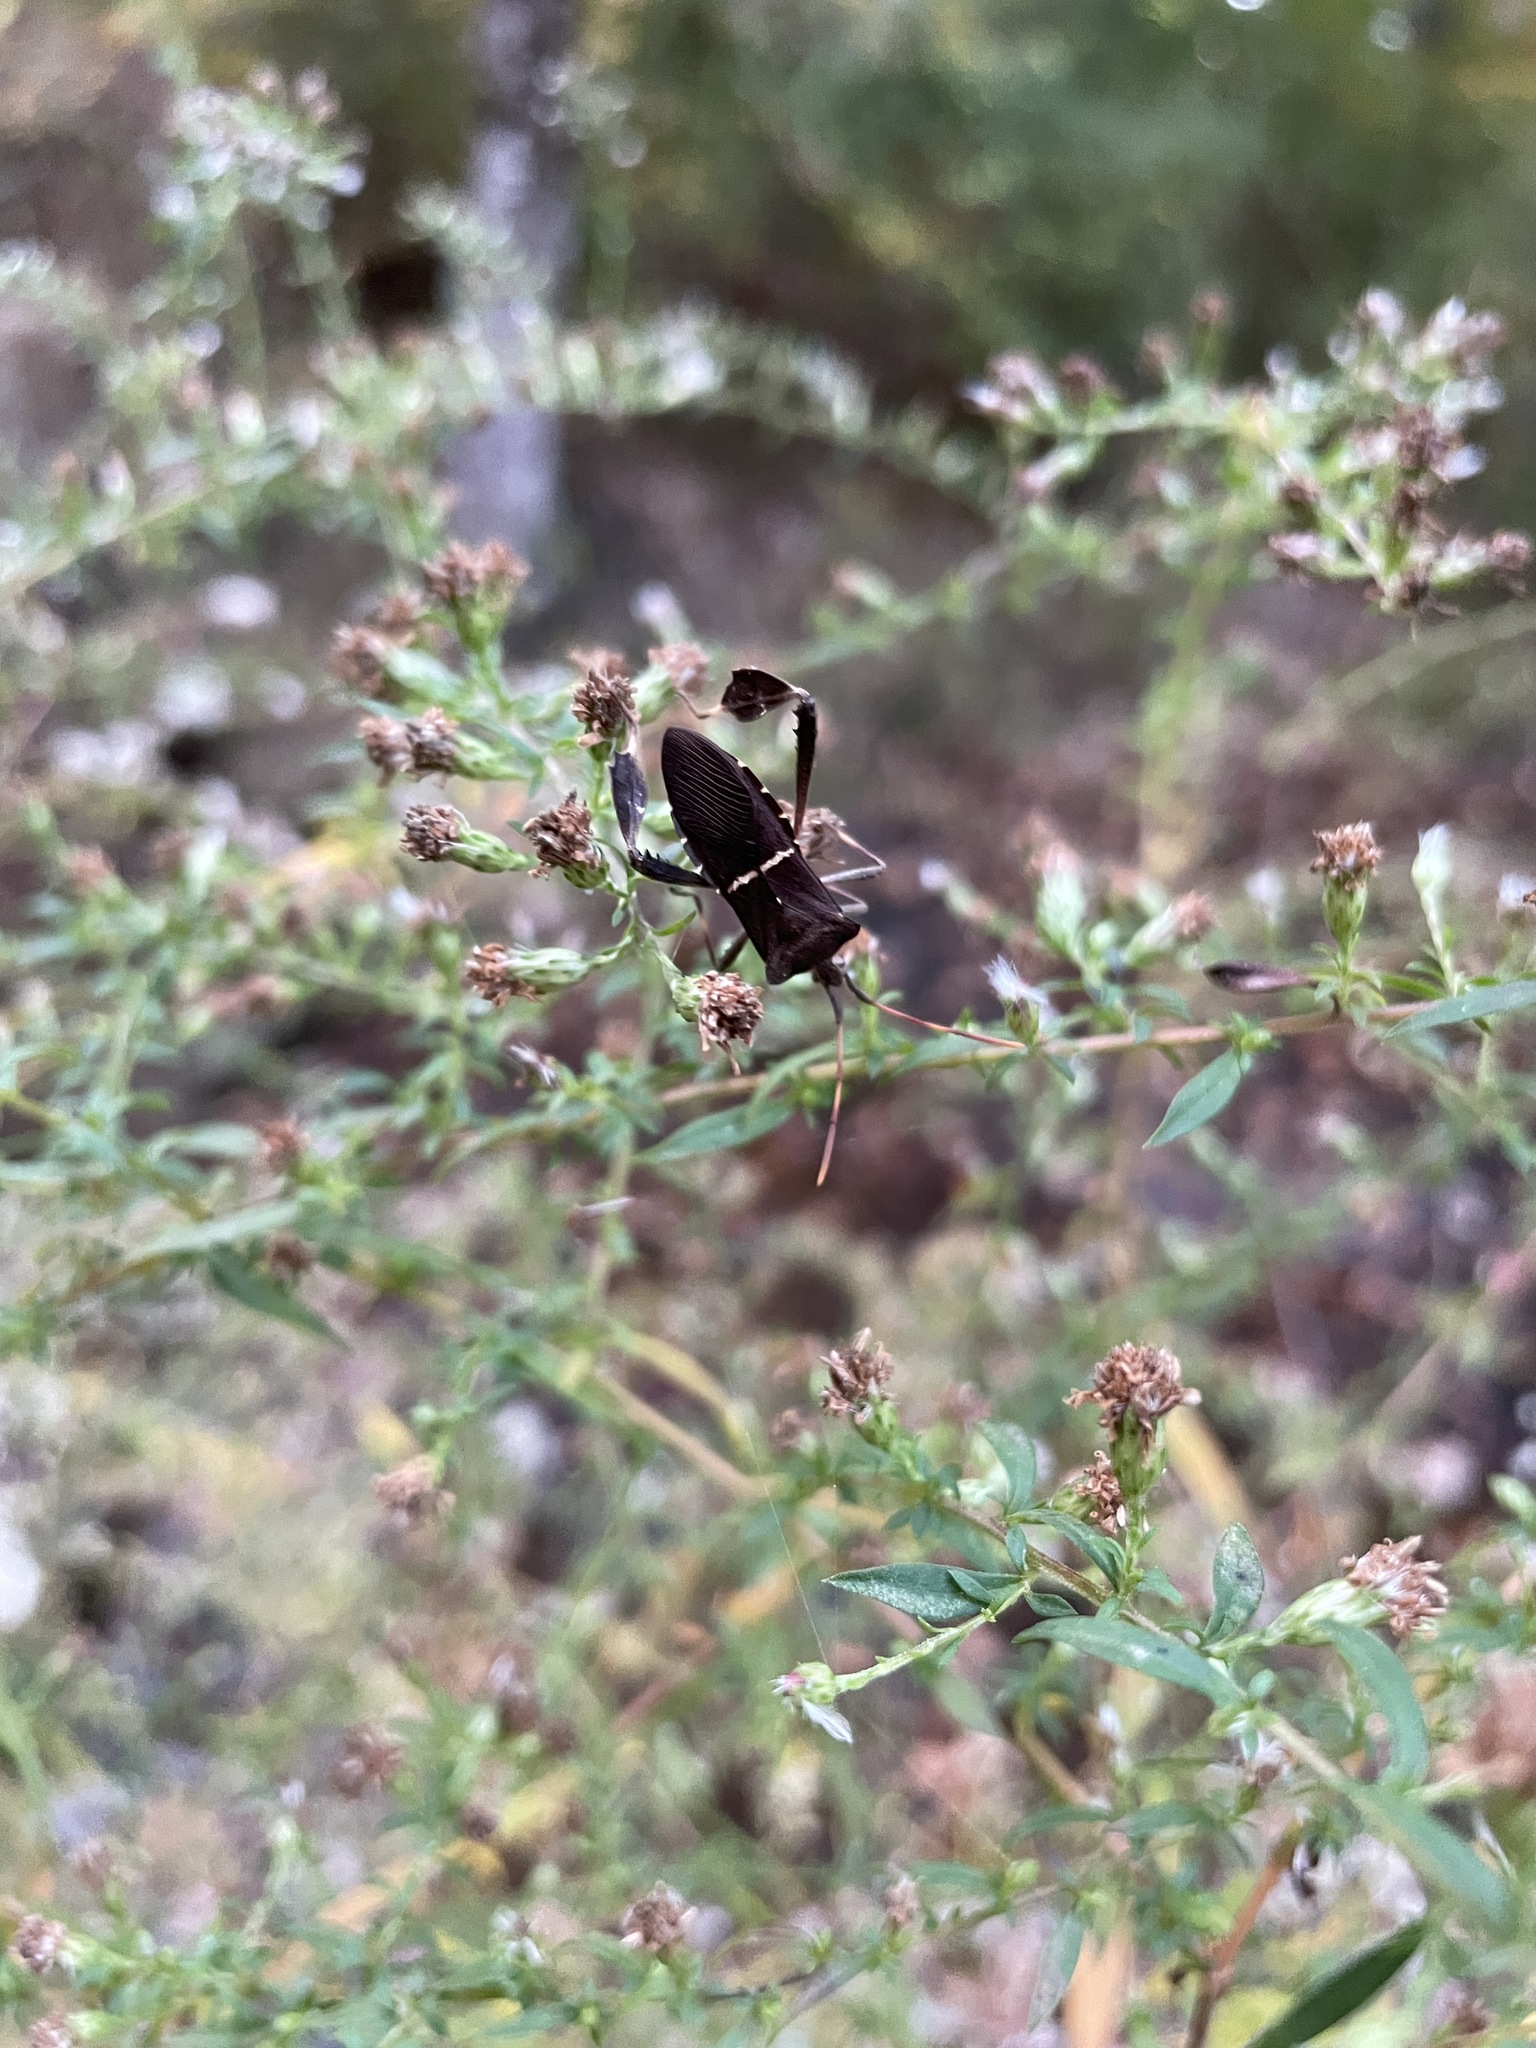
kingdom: Animalia
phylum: Arthropoda
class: Insecta
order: Hemiptera
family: Coreidae
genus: Leptoglossus
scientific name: Leptoglossus phyllopus
